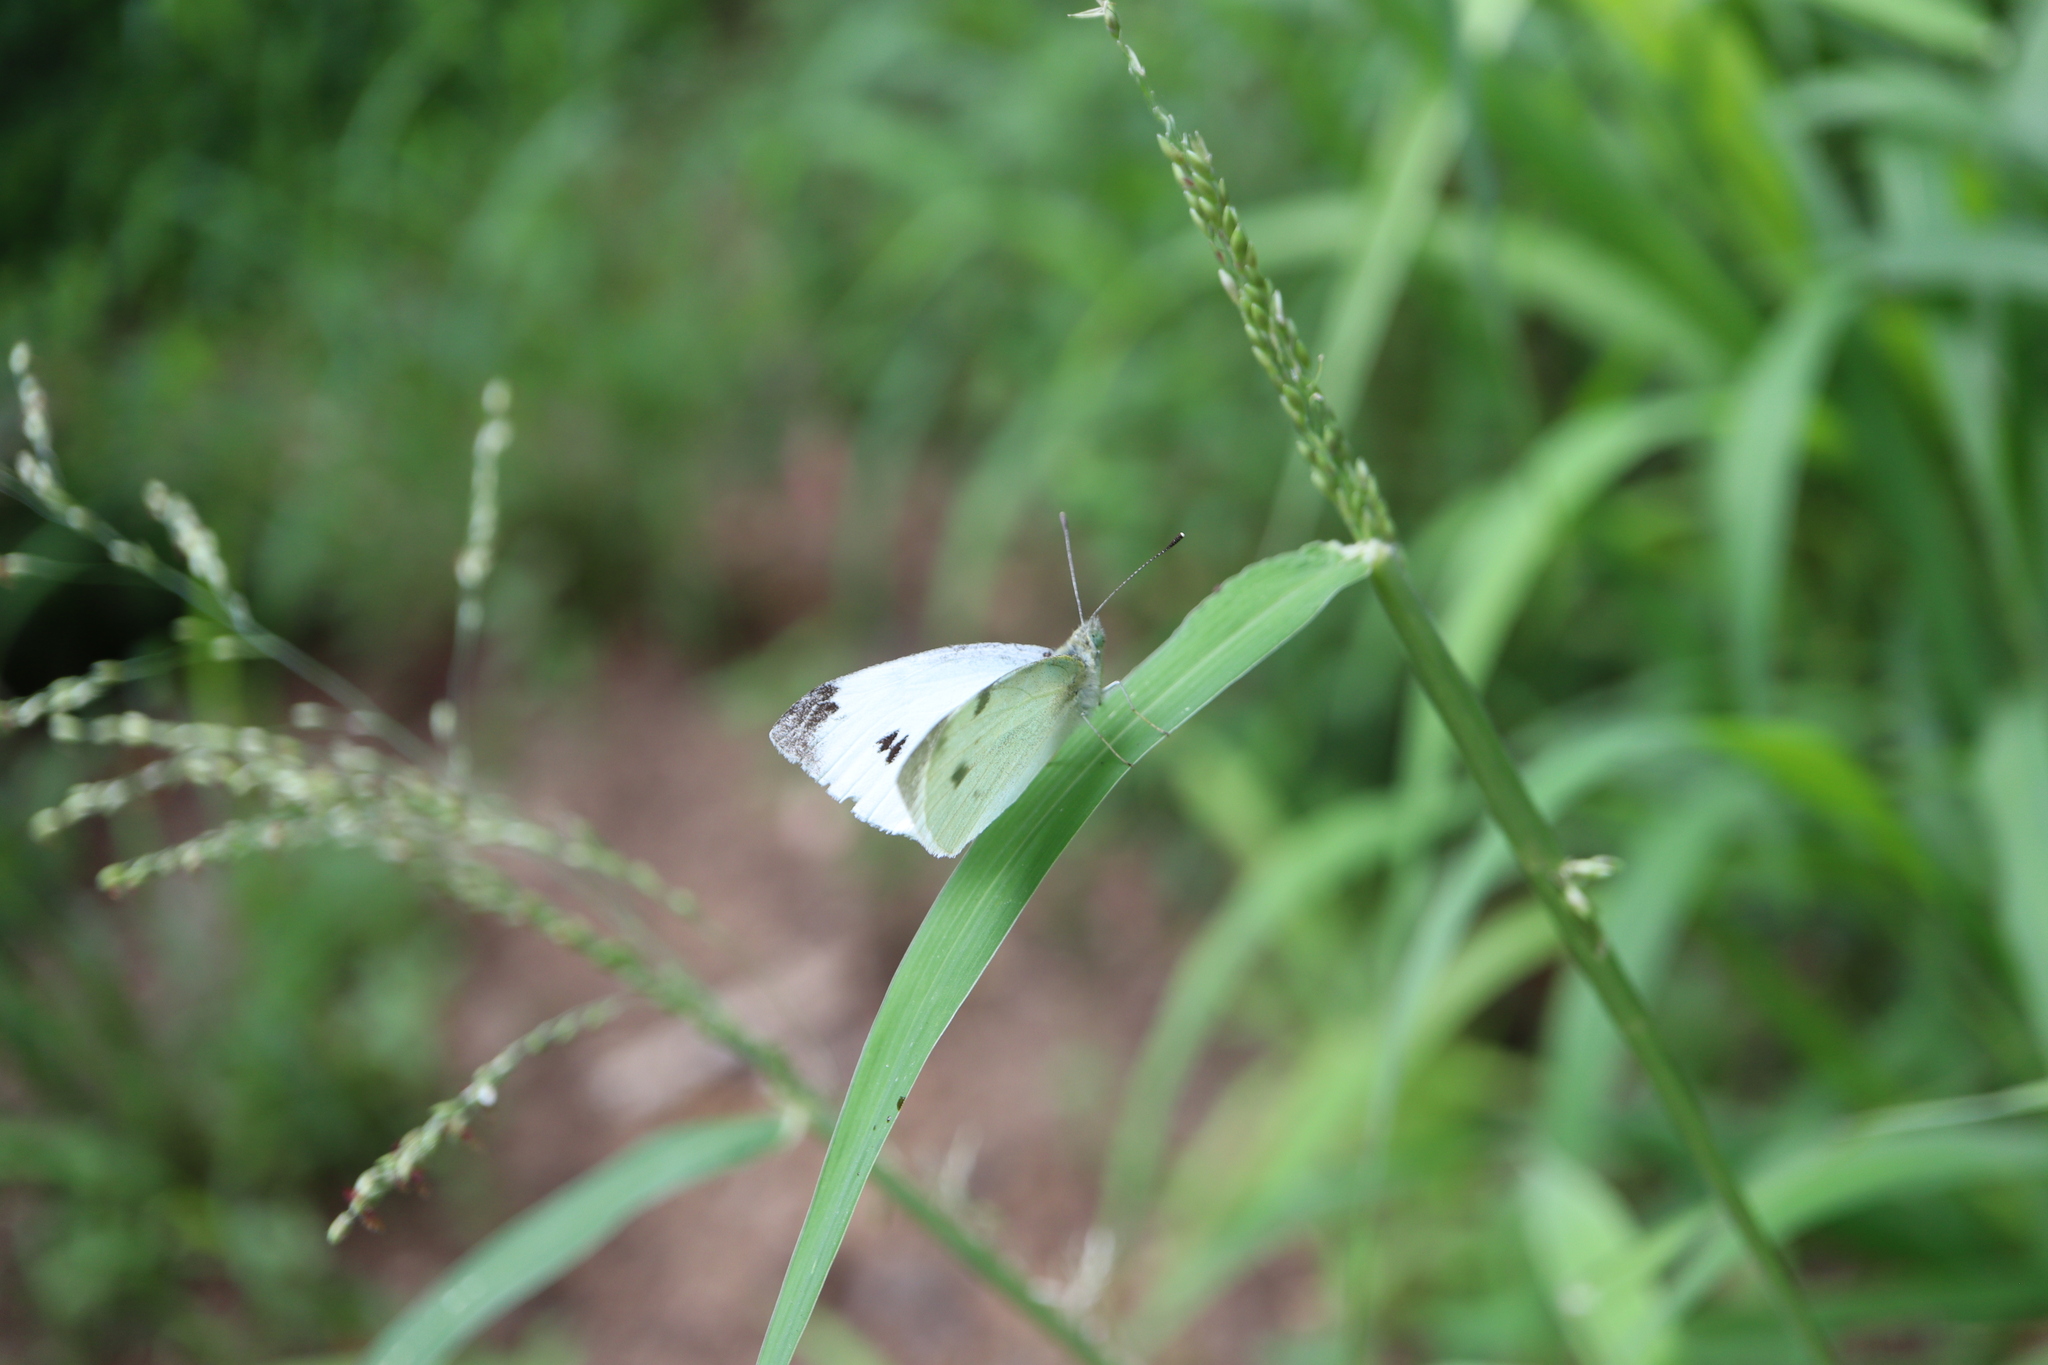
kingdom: Animalia
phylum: Arthropoda
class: Insecta
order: Lepidoptera
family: Pieridae
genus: Pieris
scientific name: Pieris rapae
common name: Small white
